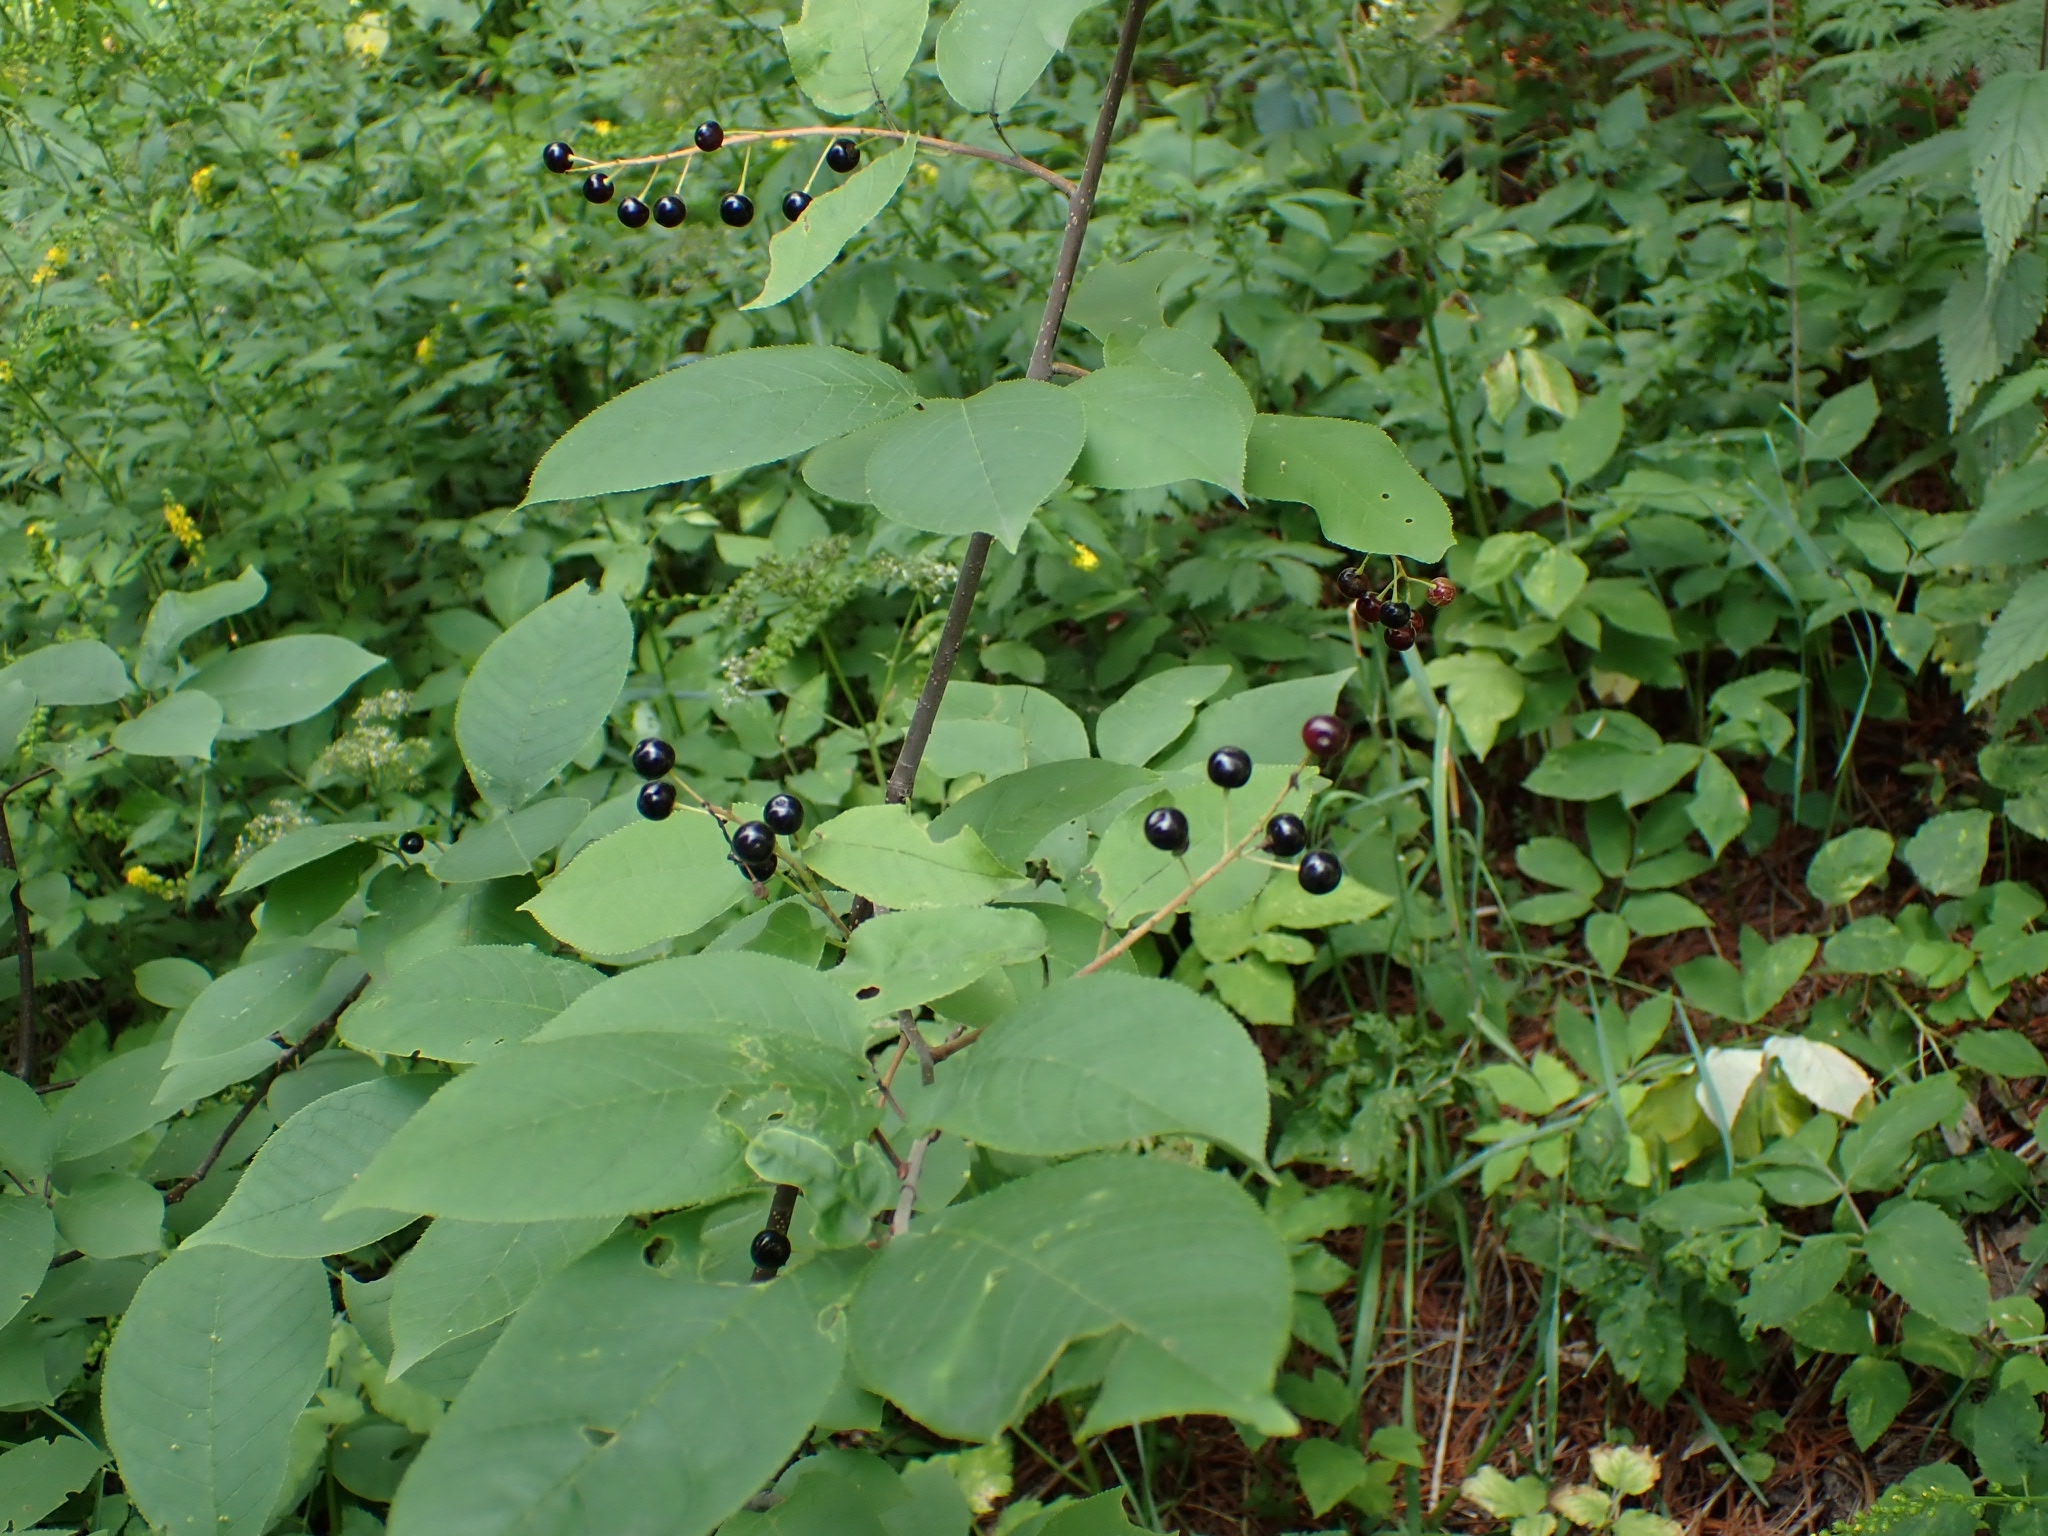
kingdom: Plantae
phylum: Tracheophyta
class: Magnoliopsida
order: Rosales
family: Rosaceae
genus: Prunus
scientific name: Prunus padus
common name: Bird cherry
